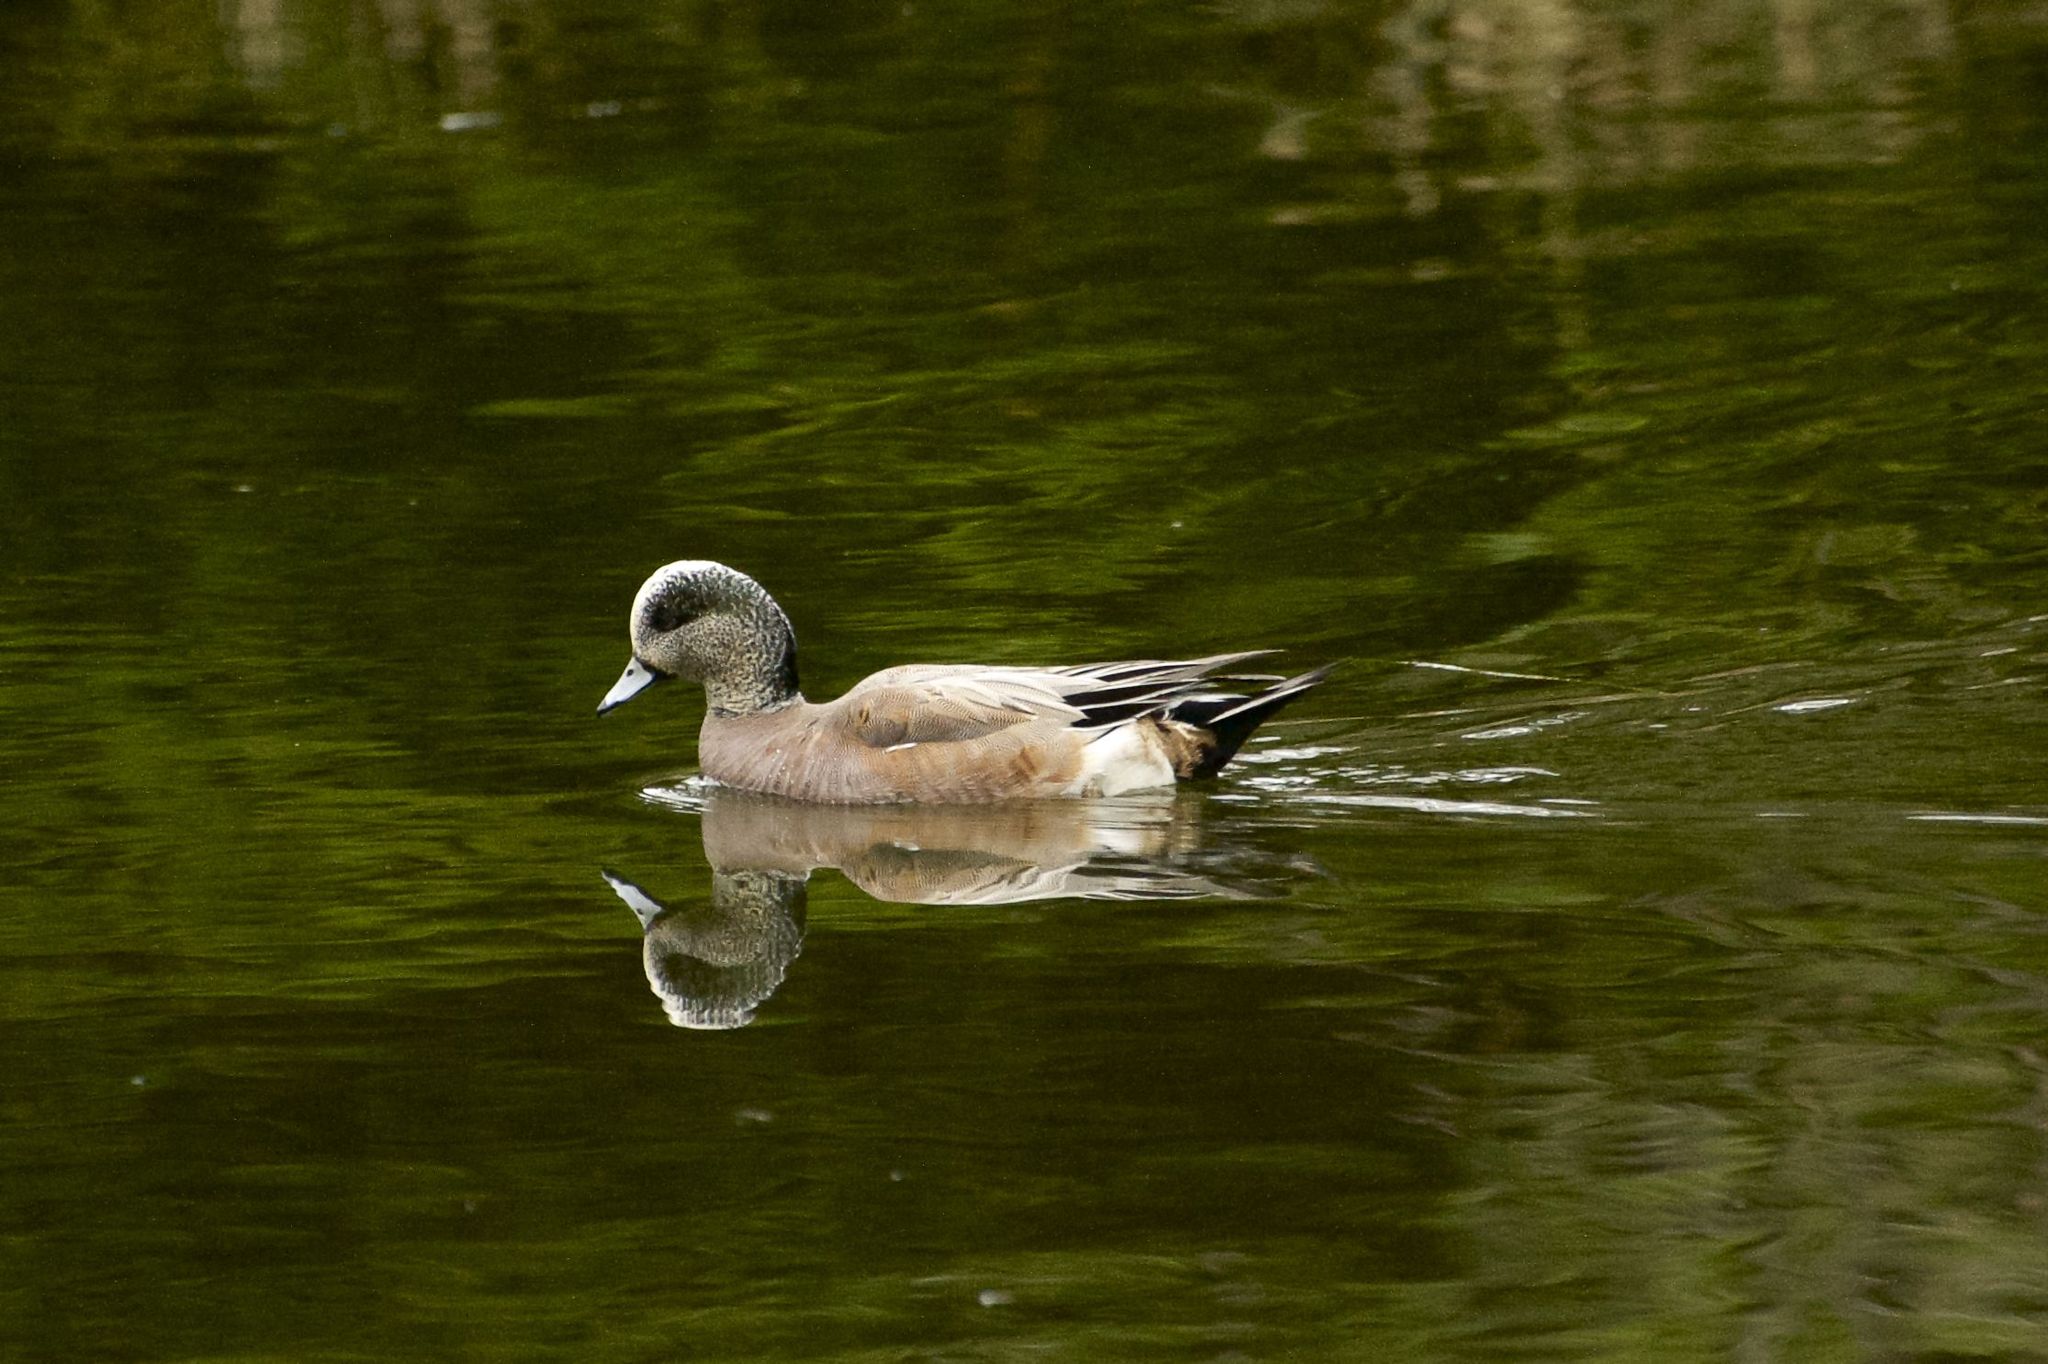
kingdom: Animalia
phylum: Chordata
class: Aves
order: Anseriformes
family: Anatidae
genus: Mareca
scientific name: Mareca americana
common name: American wigeon
